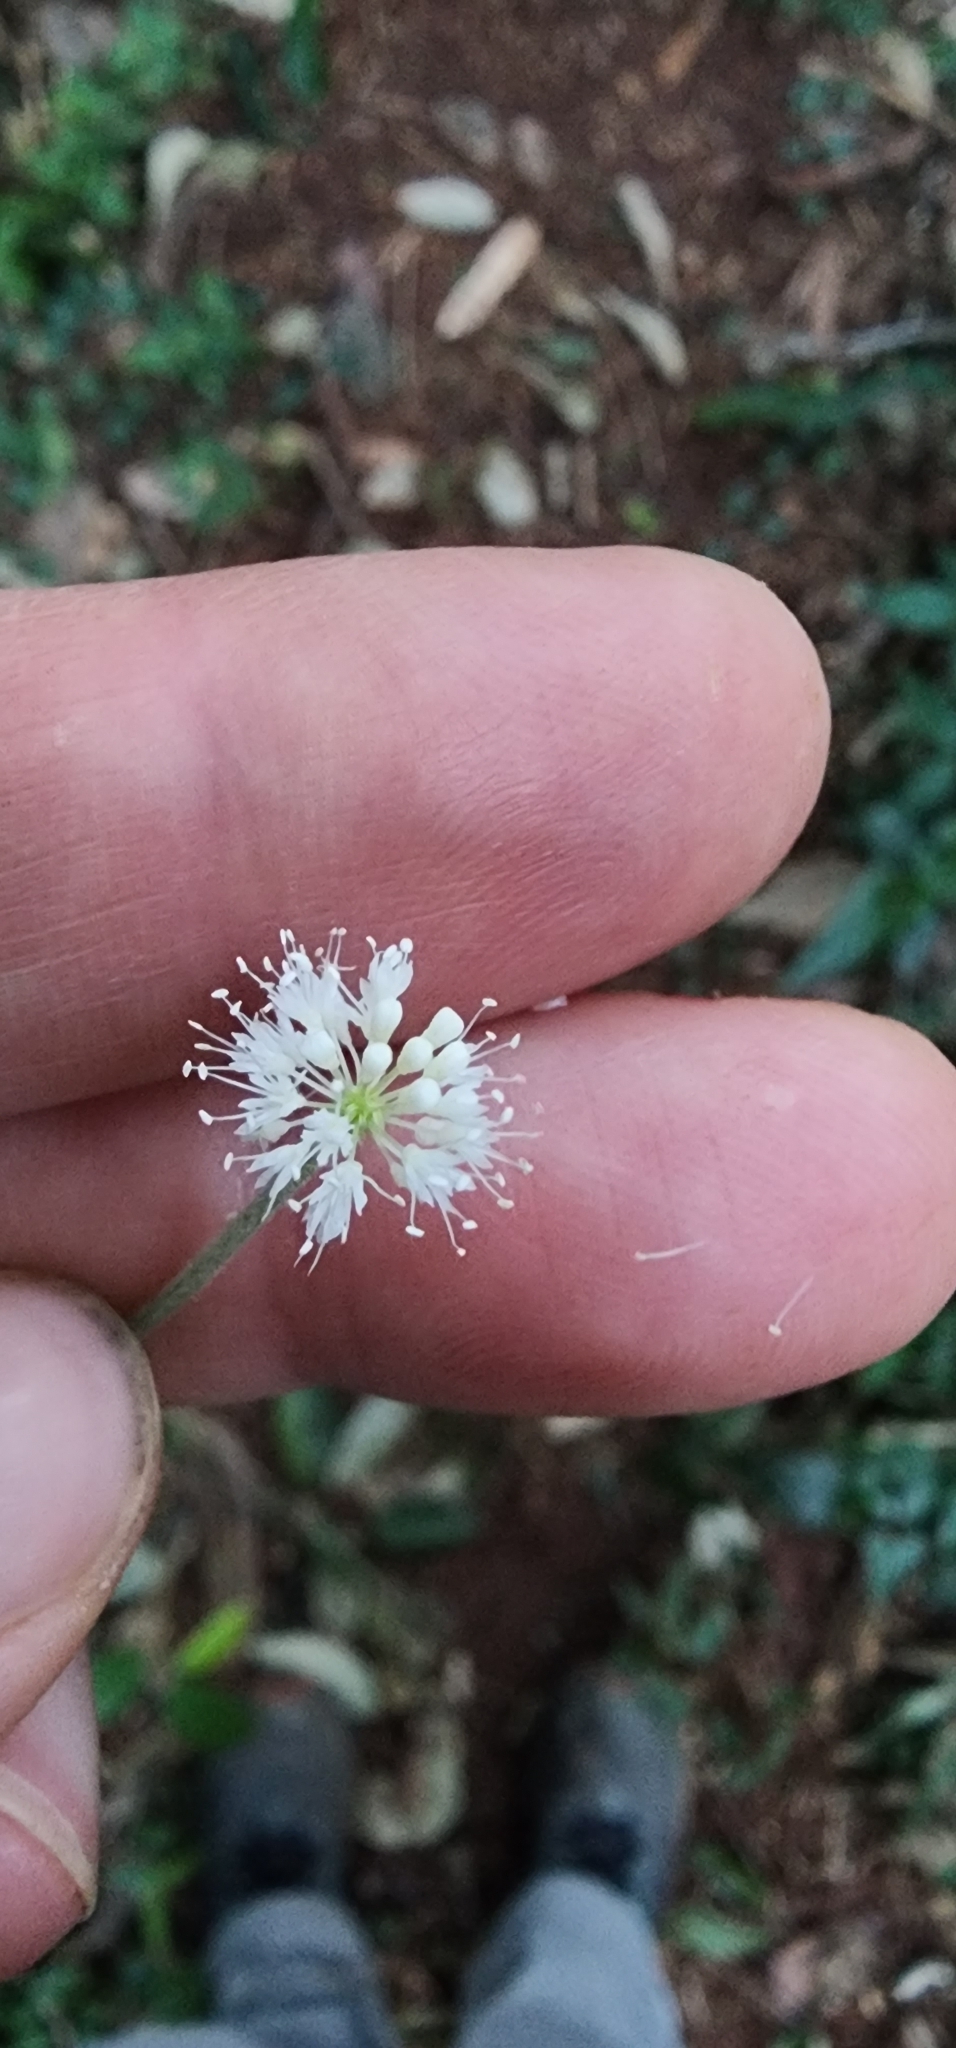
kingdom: Plantae
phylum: Tracheophyta
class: Magnoliopsida
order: Apiales
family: Araliaceae
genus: Hydrocotyle
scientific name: Hydrocotyle leucocephala
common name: Brazilian pennywort
